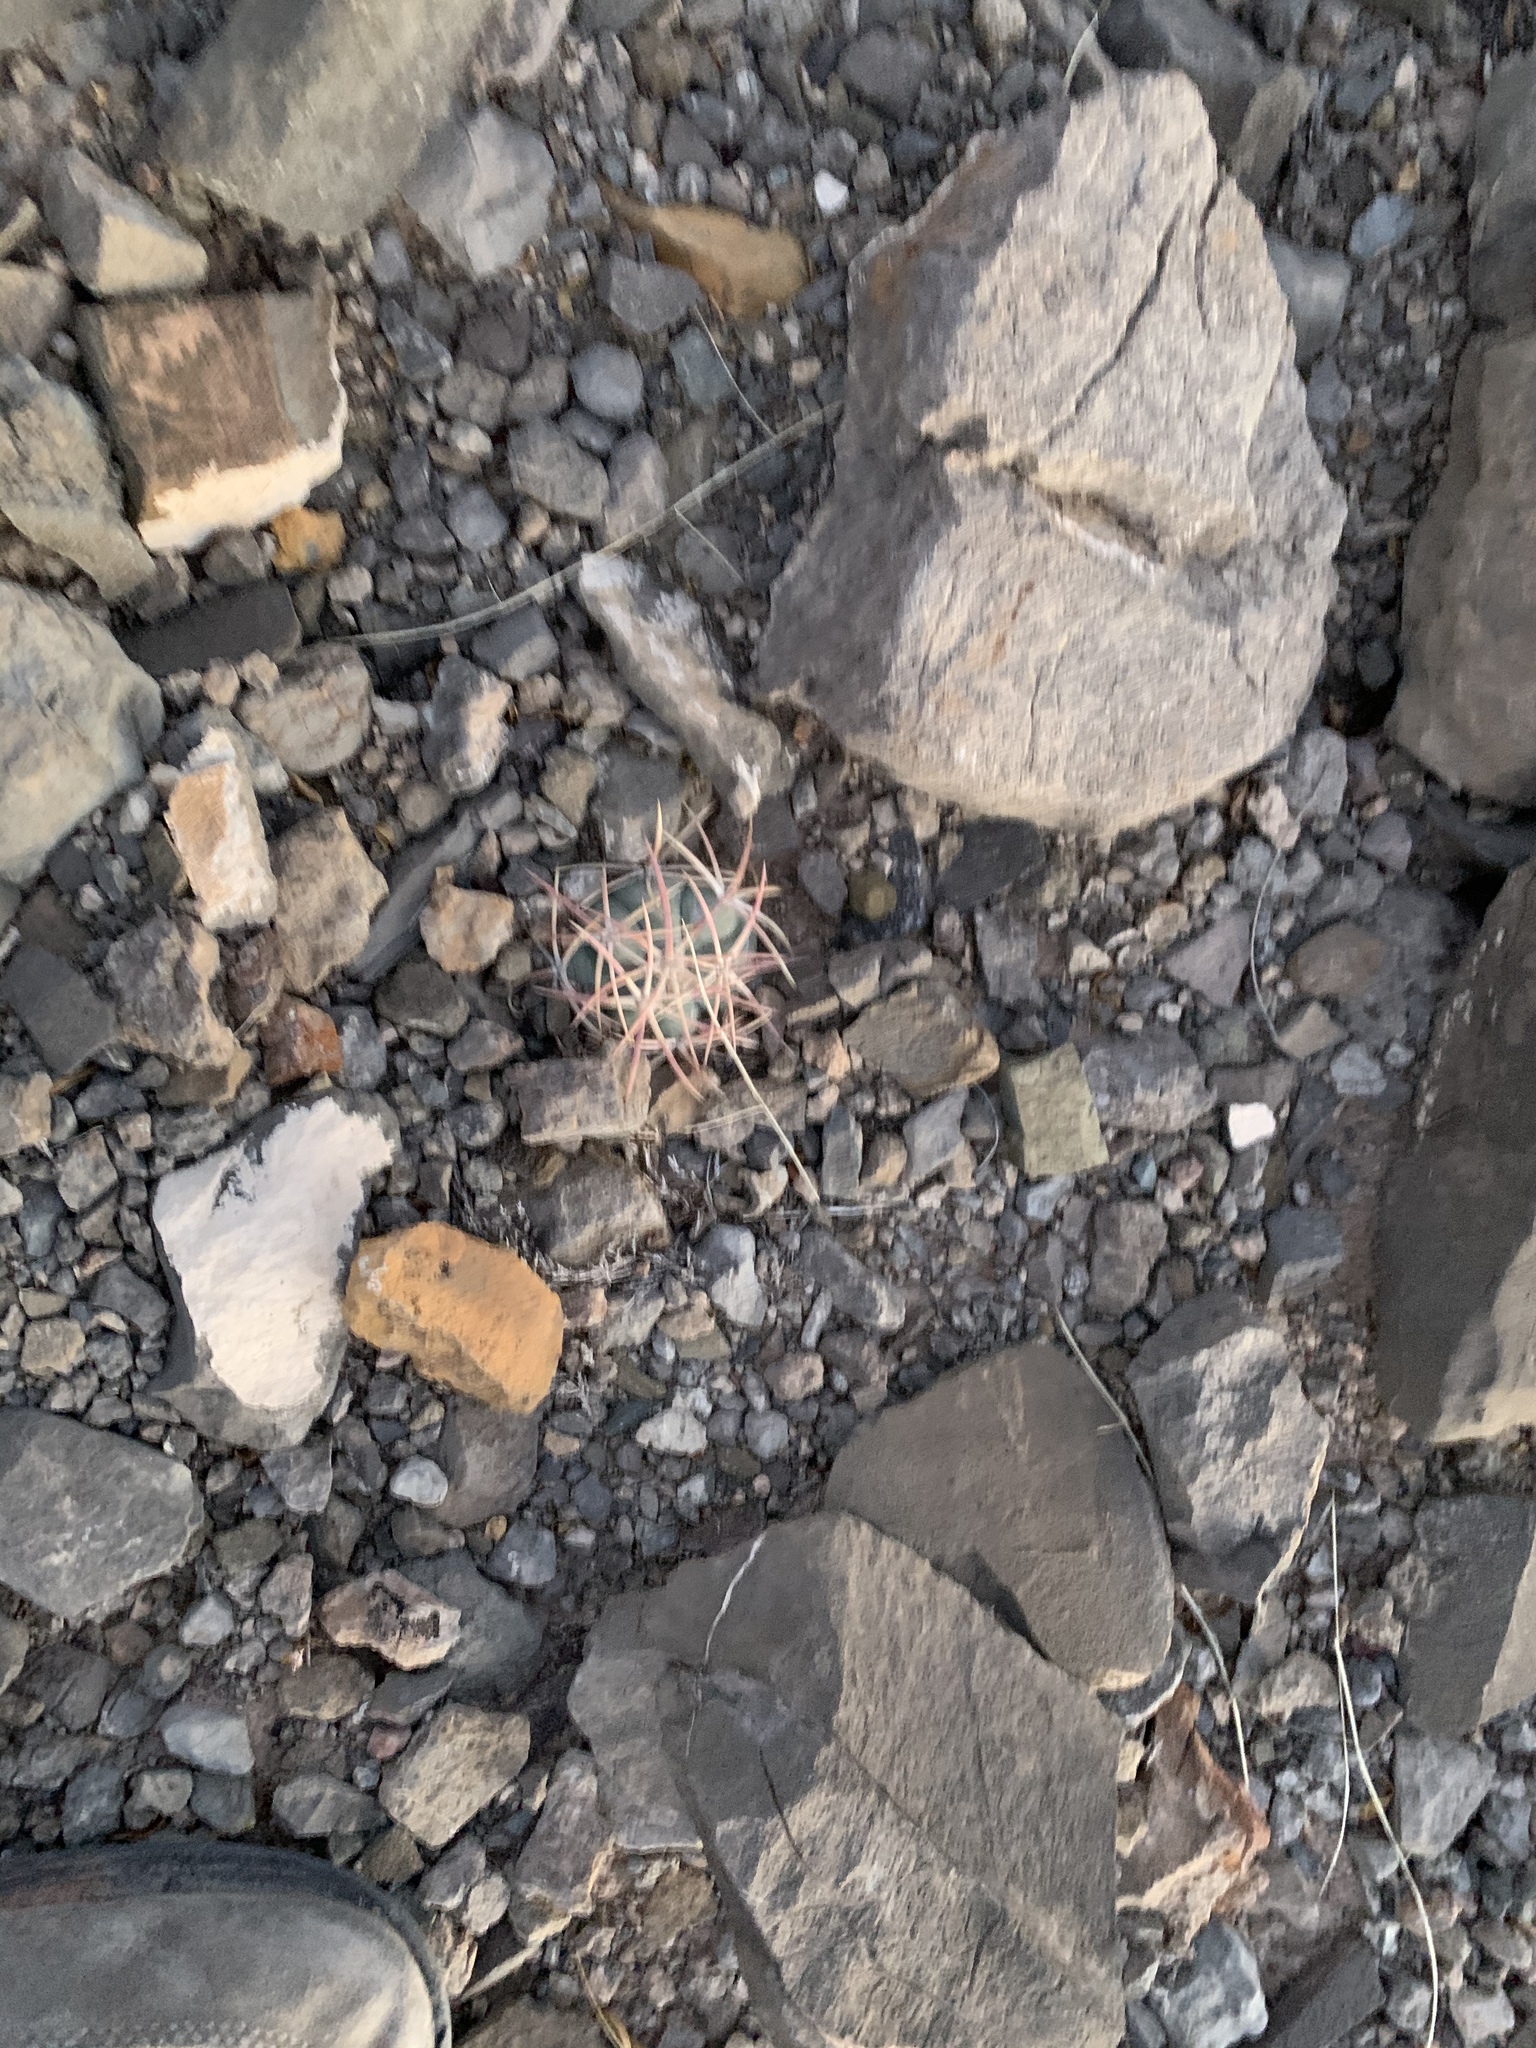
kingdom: Plantae
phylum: Tracheophyta
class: Magnoliopsida
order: Caryophyllales
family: Cactaceae
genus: Echinocactus
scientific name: Echinocactus horizonthalonius
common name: Devilshead
